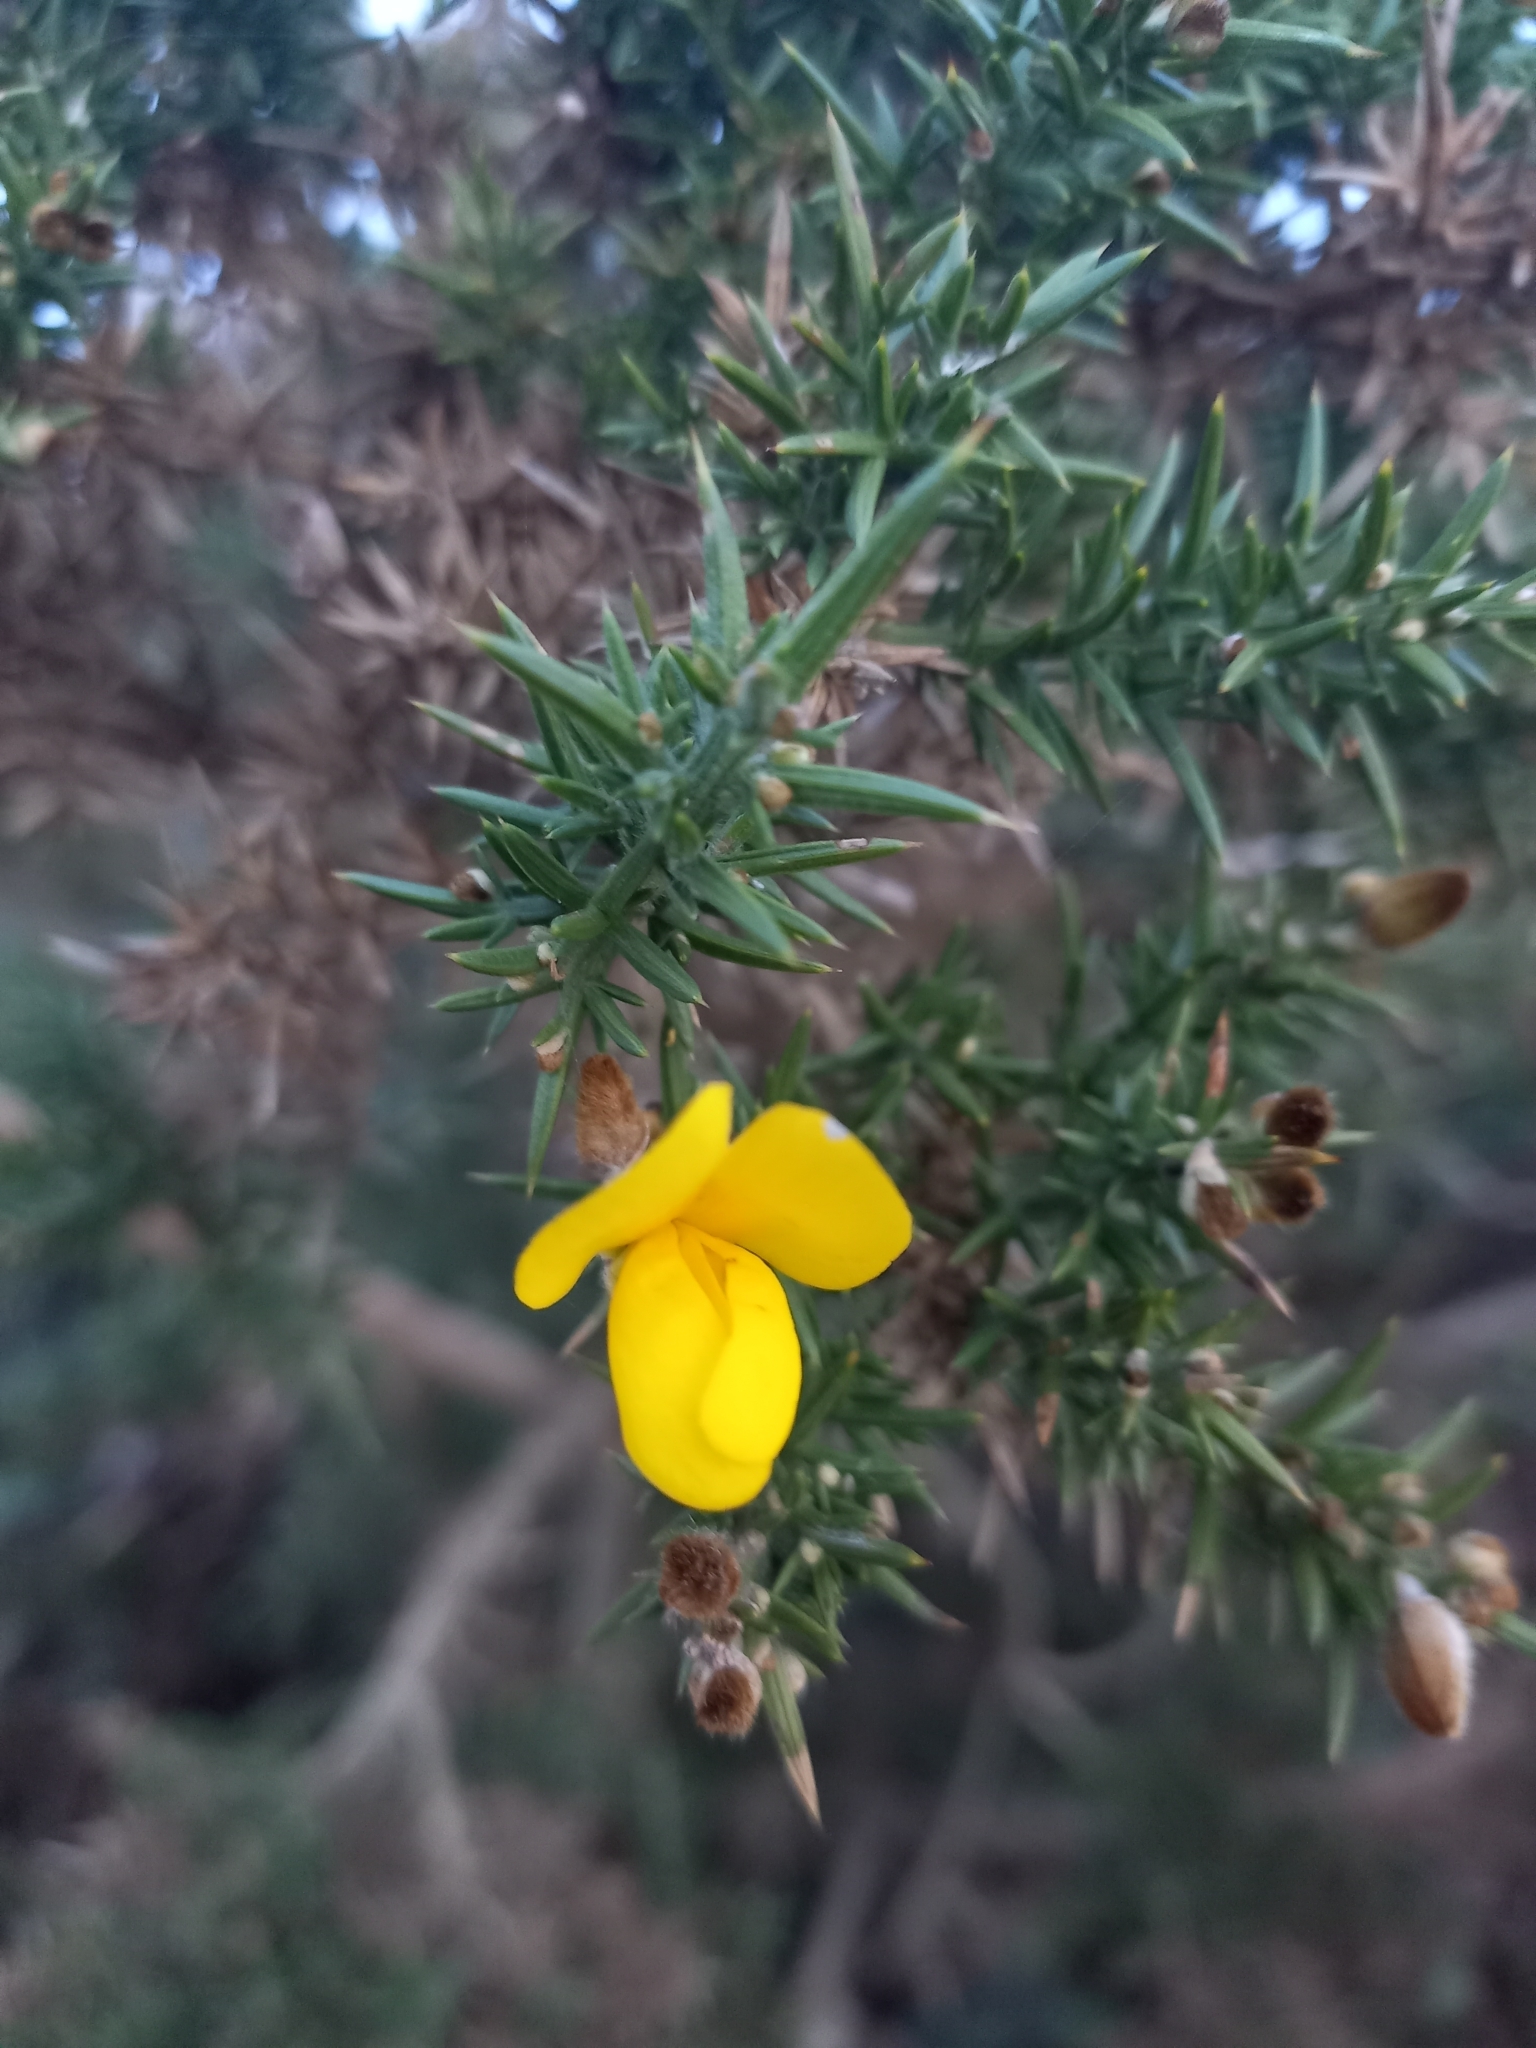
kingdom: Plantae
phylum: Tracheophyta
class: Magnoliopsida
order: Fabales
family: Fabaceae
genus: Ulex
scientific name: Ulex europaeus
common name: Common gorse
